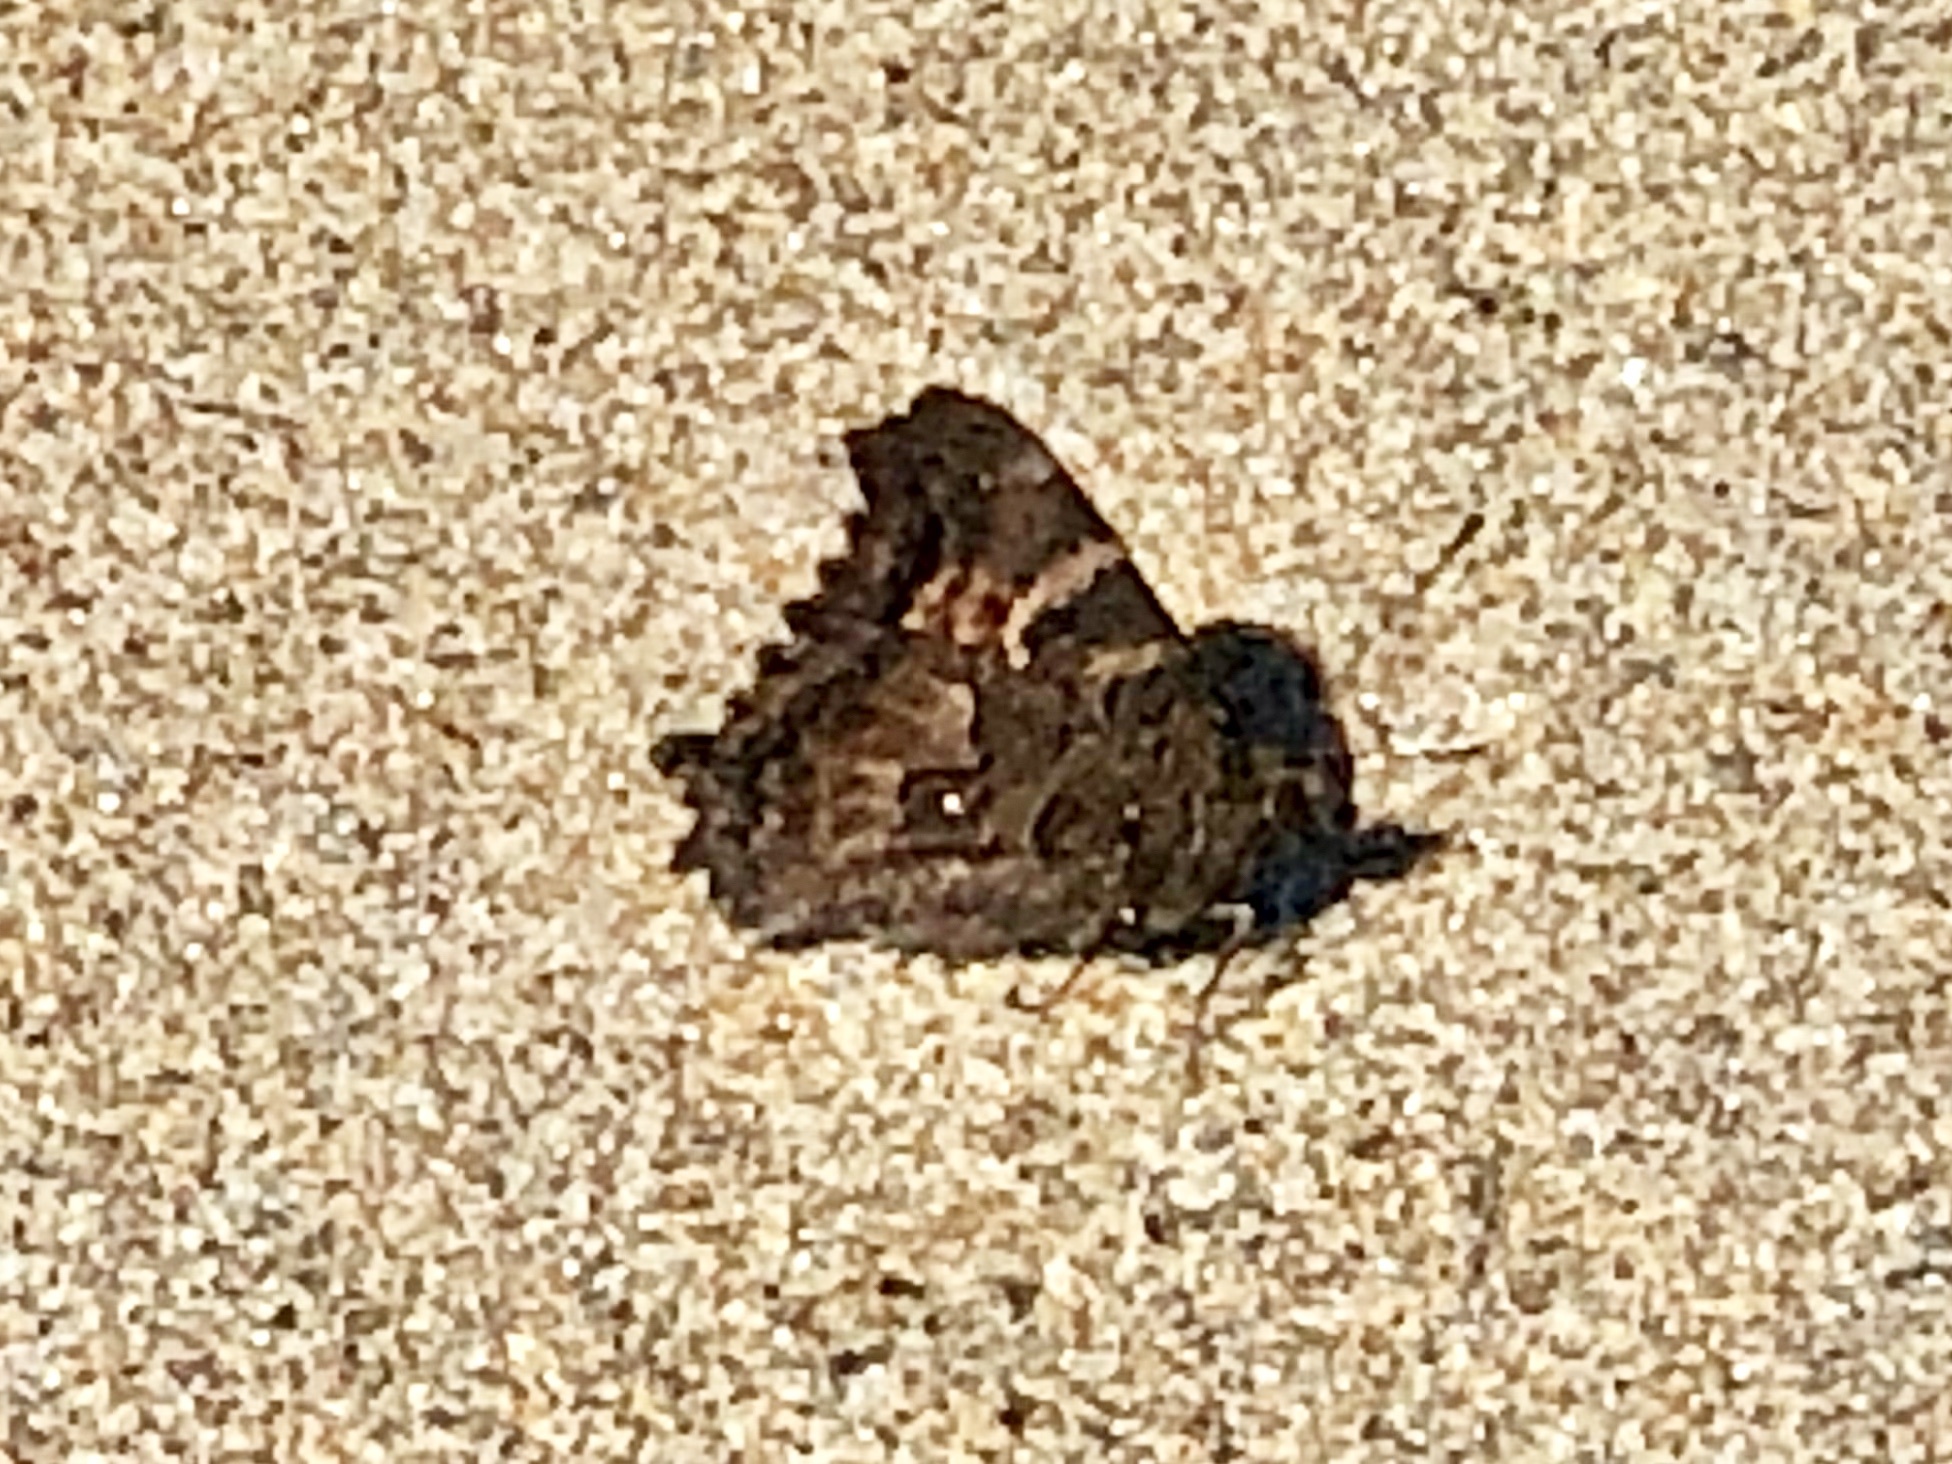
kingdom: Animalia
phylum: Arthropoda
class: Insecta
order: Lepidoptera
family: Nymphalidae
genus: Nymphalis
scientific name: Nymphalis californica
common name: California tortoiseshell
